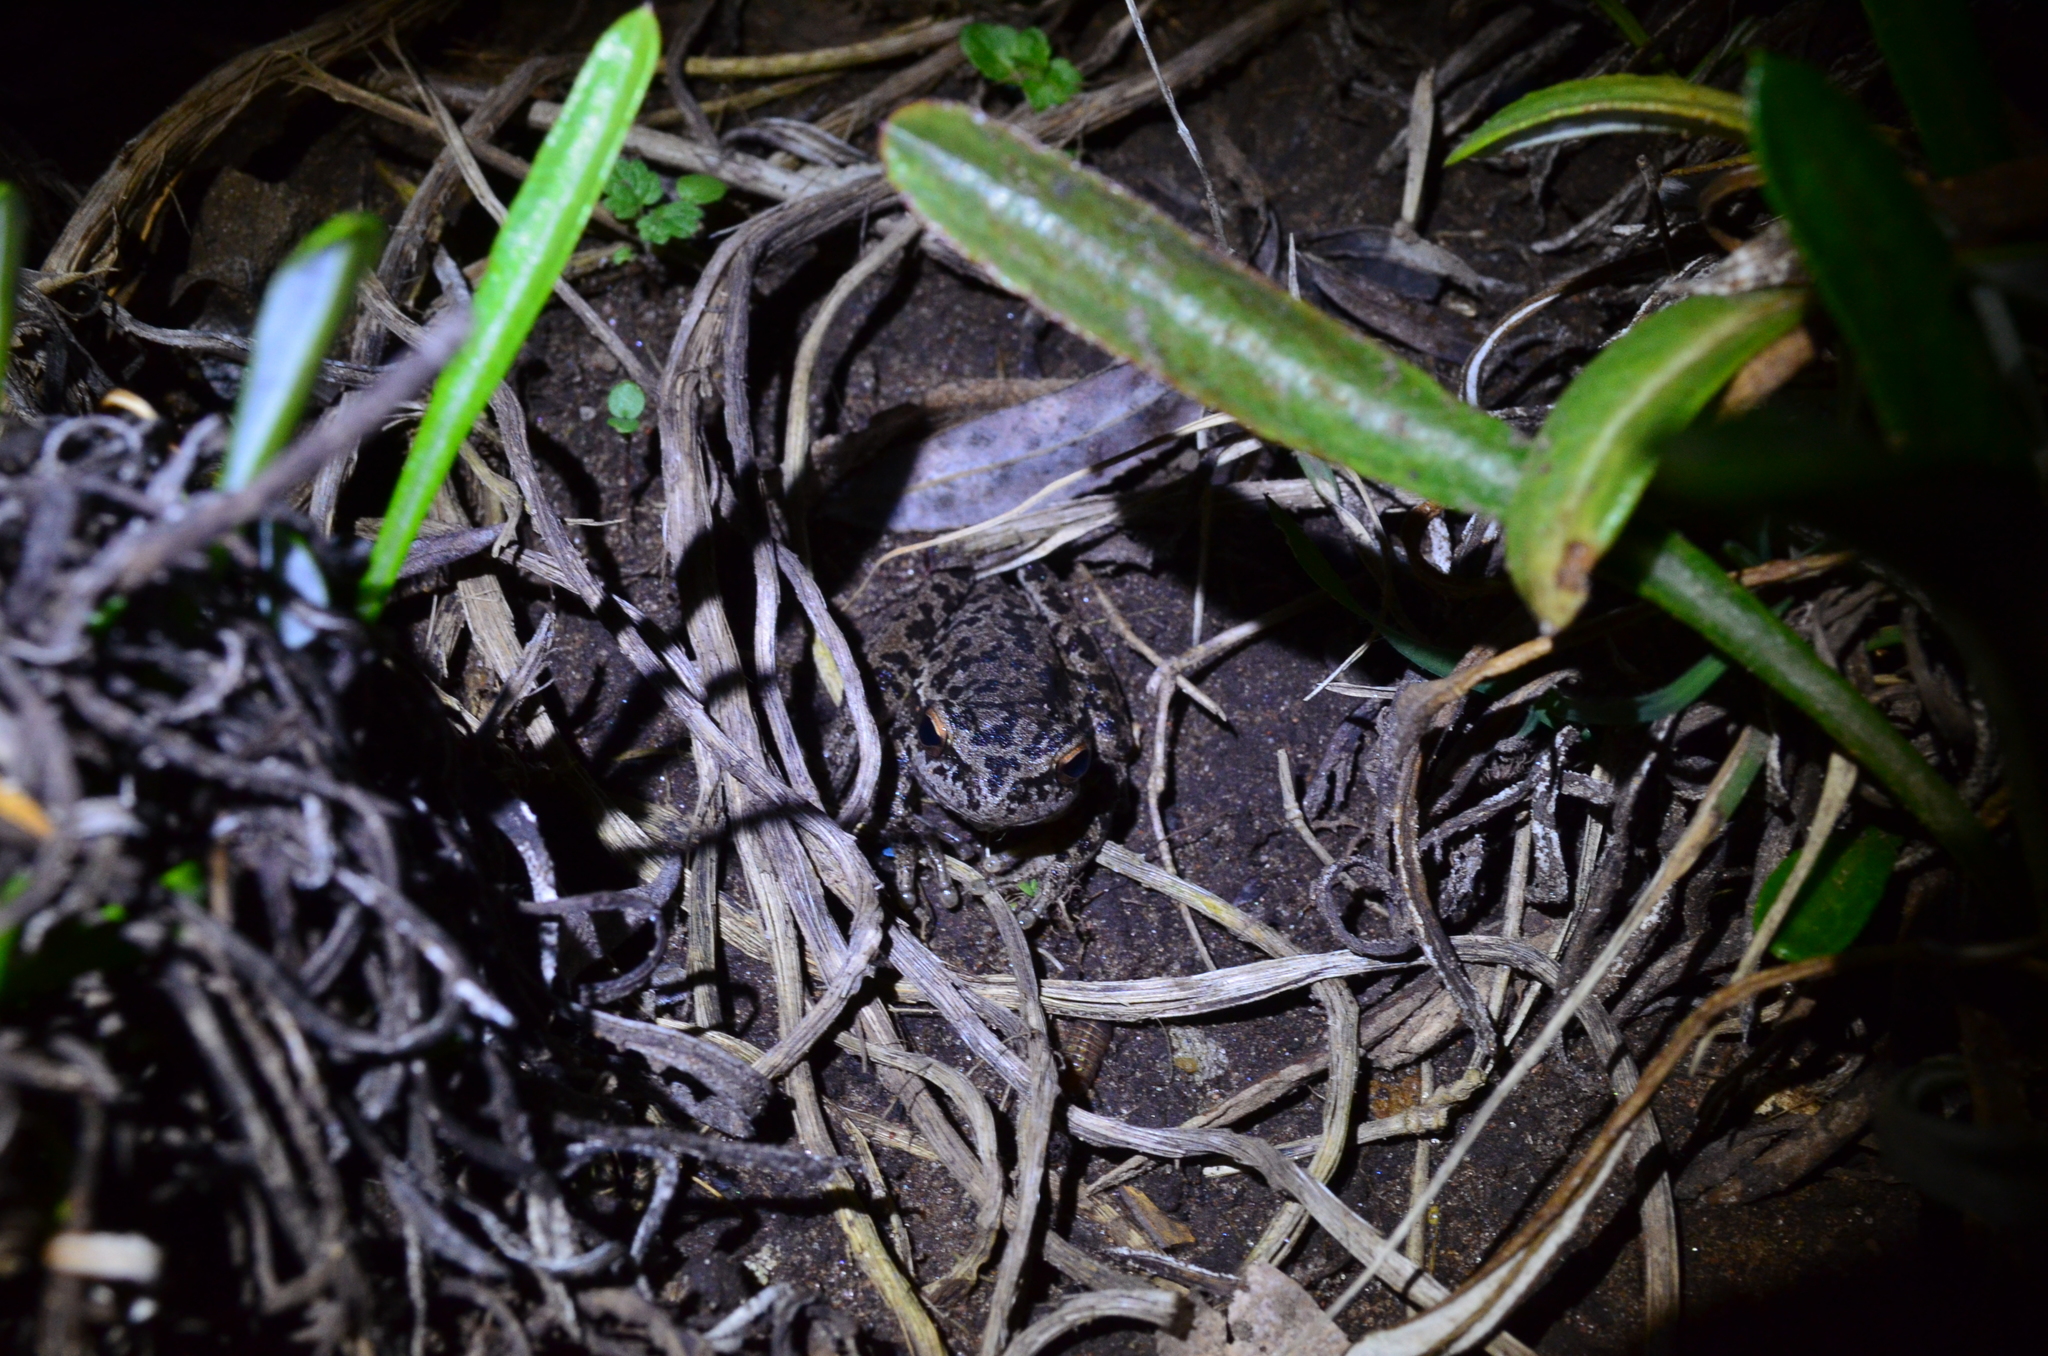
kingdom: Animalia
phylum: Chordata
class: Amphibia
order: Anura
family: Hylidae
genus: Boana
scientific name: Boana pulchella
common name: Montevideo treefrog
